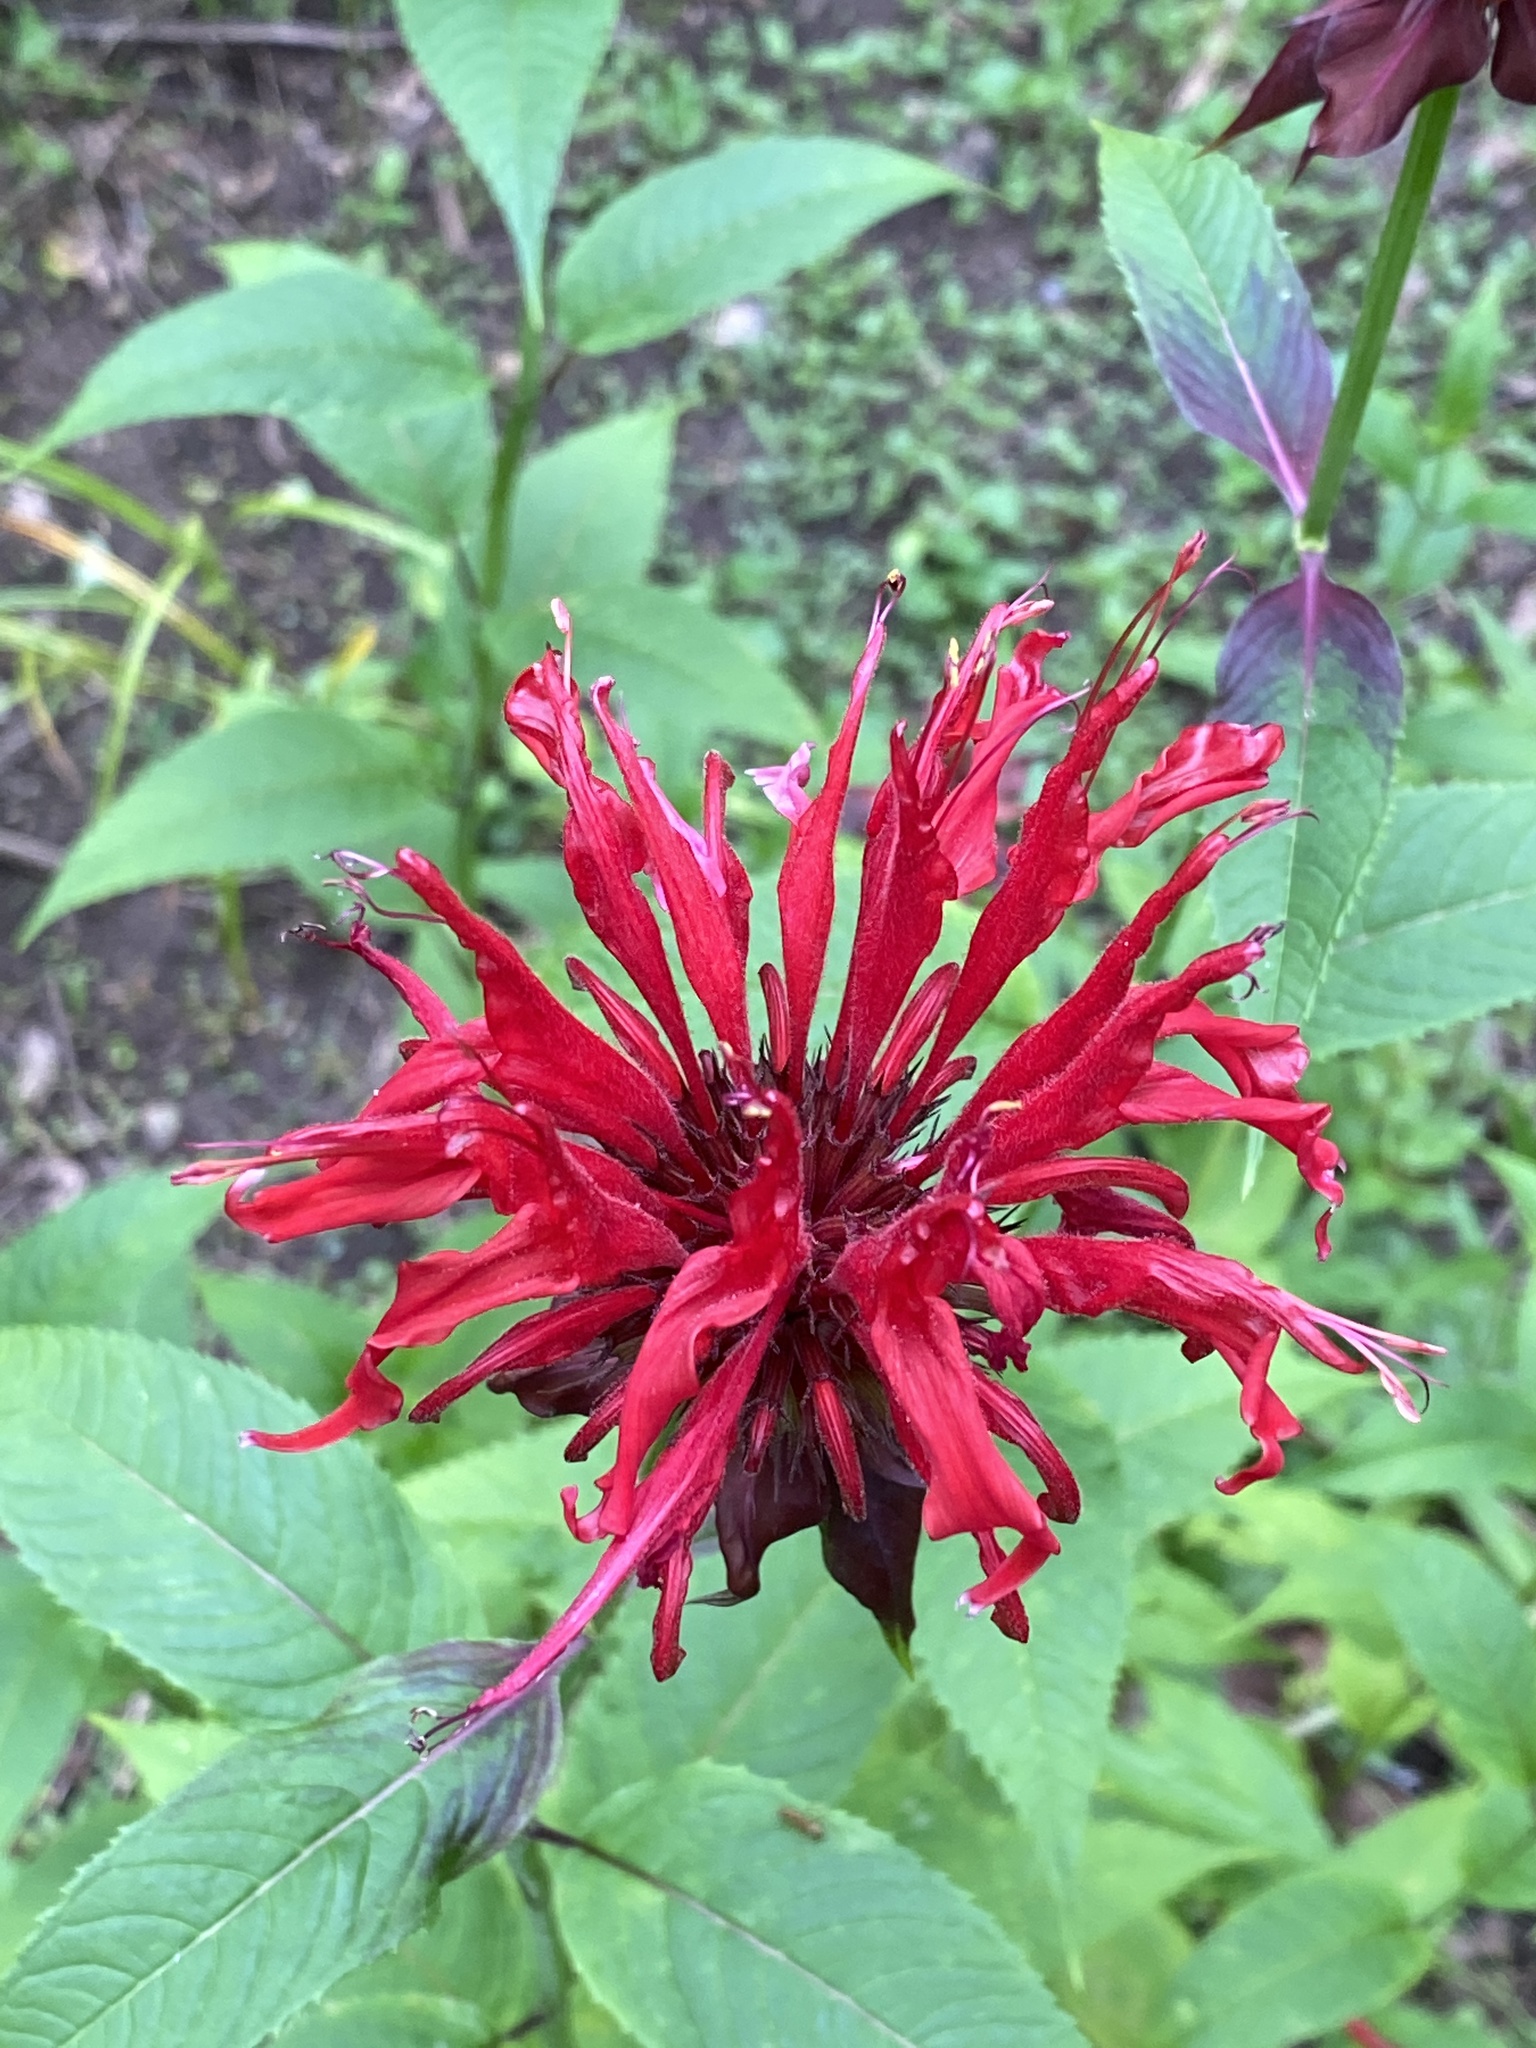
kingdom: Plantae
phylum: Tracheophyta
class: Magnoliopsida
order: Lamiales
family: Lamiaceae
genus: Monarda
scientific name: Monarda didyma
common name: Beebalm
